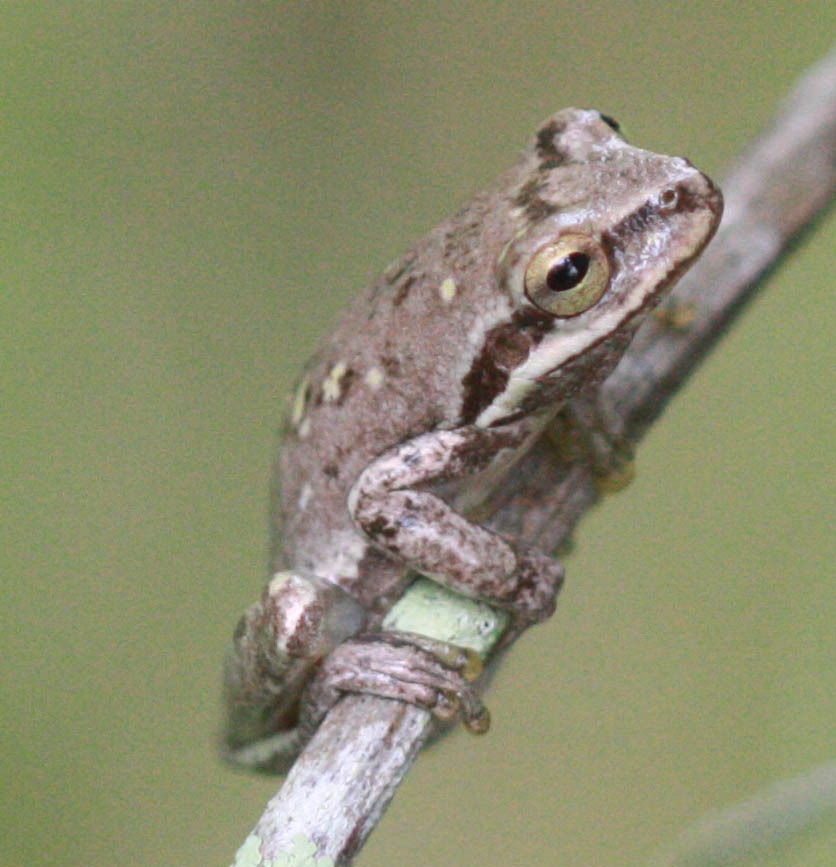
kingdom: Animalia
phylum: Chordata
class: Amphibia
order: Anura
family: Hylidae
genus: Dryophytes
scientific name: Dryophytes squirellus
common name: Squirrel treefrog
